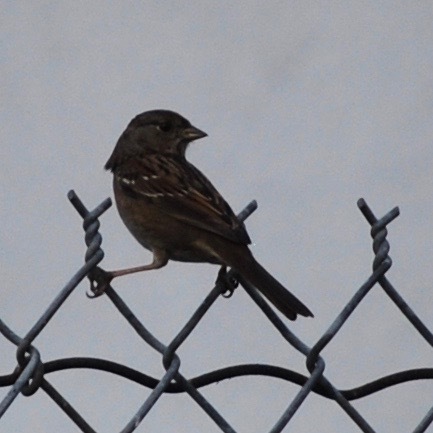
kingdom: Animalia
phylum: Chordata
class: Aves
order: Passeriformes
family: Passerellidae
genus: Zonotrichia
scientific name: Zonotrichia atricapilla
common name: Golden-crowned sparrow
